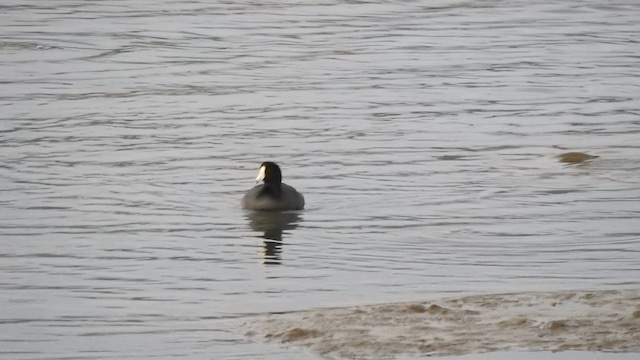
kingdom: Animalia
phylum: Chordata
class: Aves
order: Gruiformes
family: Rallidae
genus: Fulica
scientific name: Fulica americana
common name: American coot
